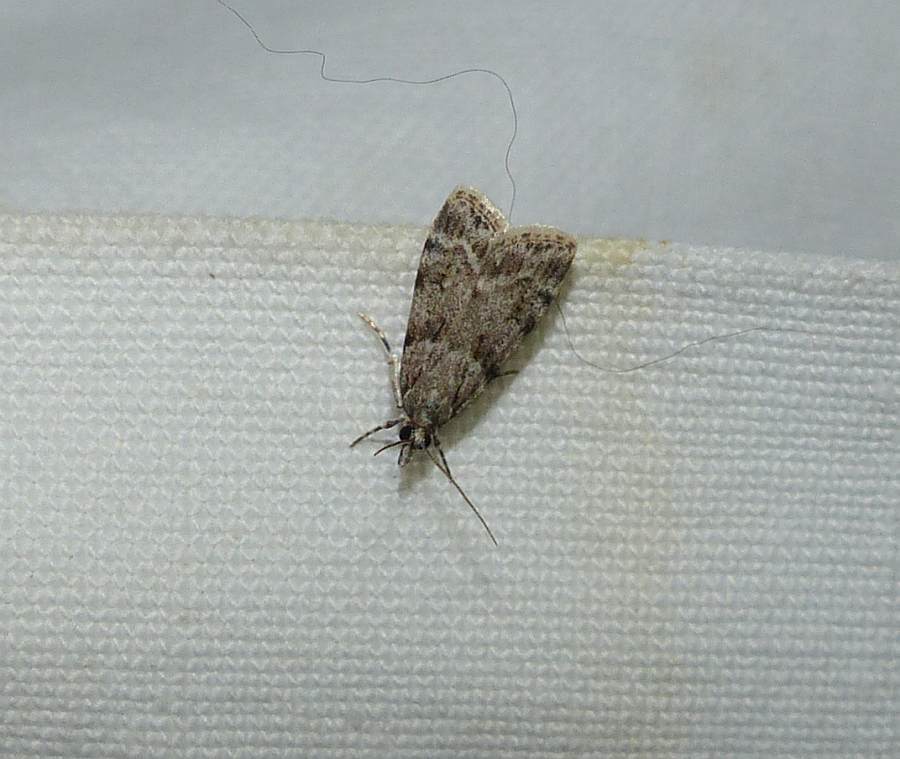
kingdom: Animalia
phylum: Arthropoda
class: Insecta
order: Lepidoptera
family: Crambidae
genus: Scoparia
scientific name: Scoparia biplagialis
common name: Double-striped scoparia moth
